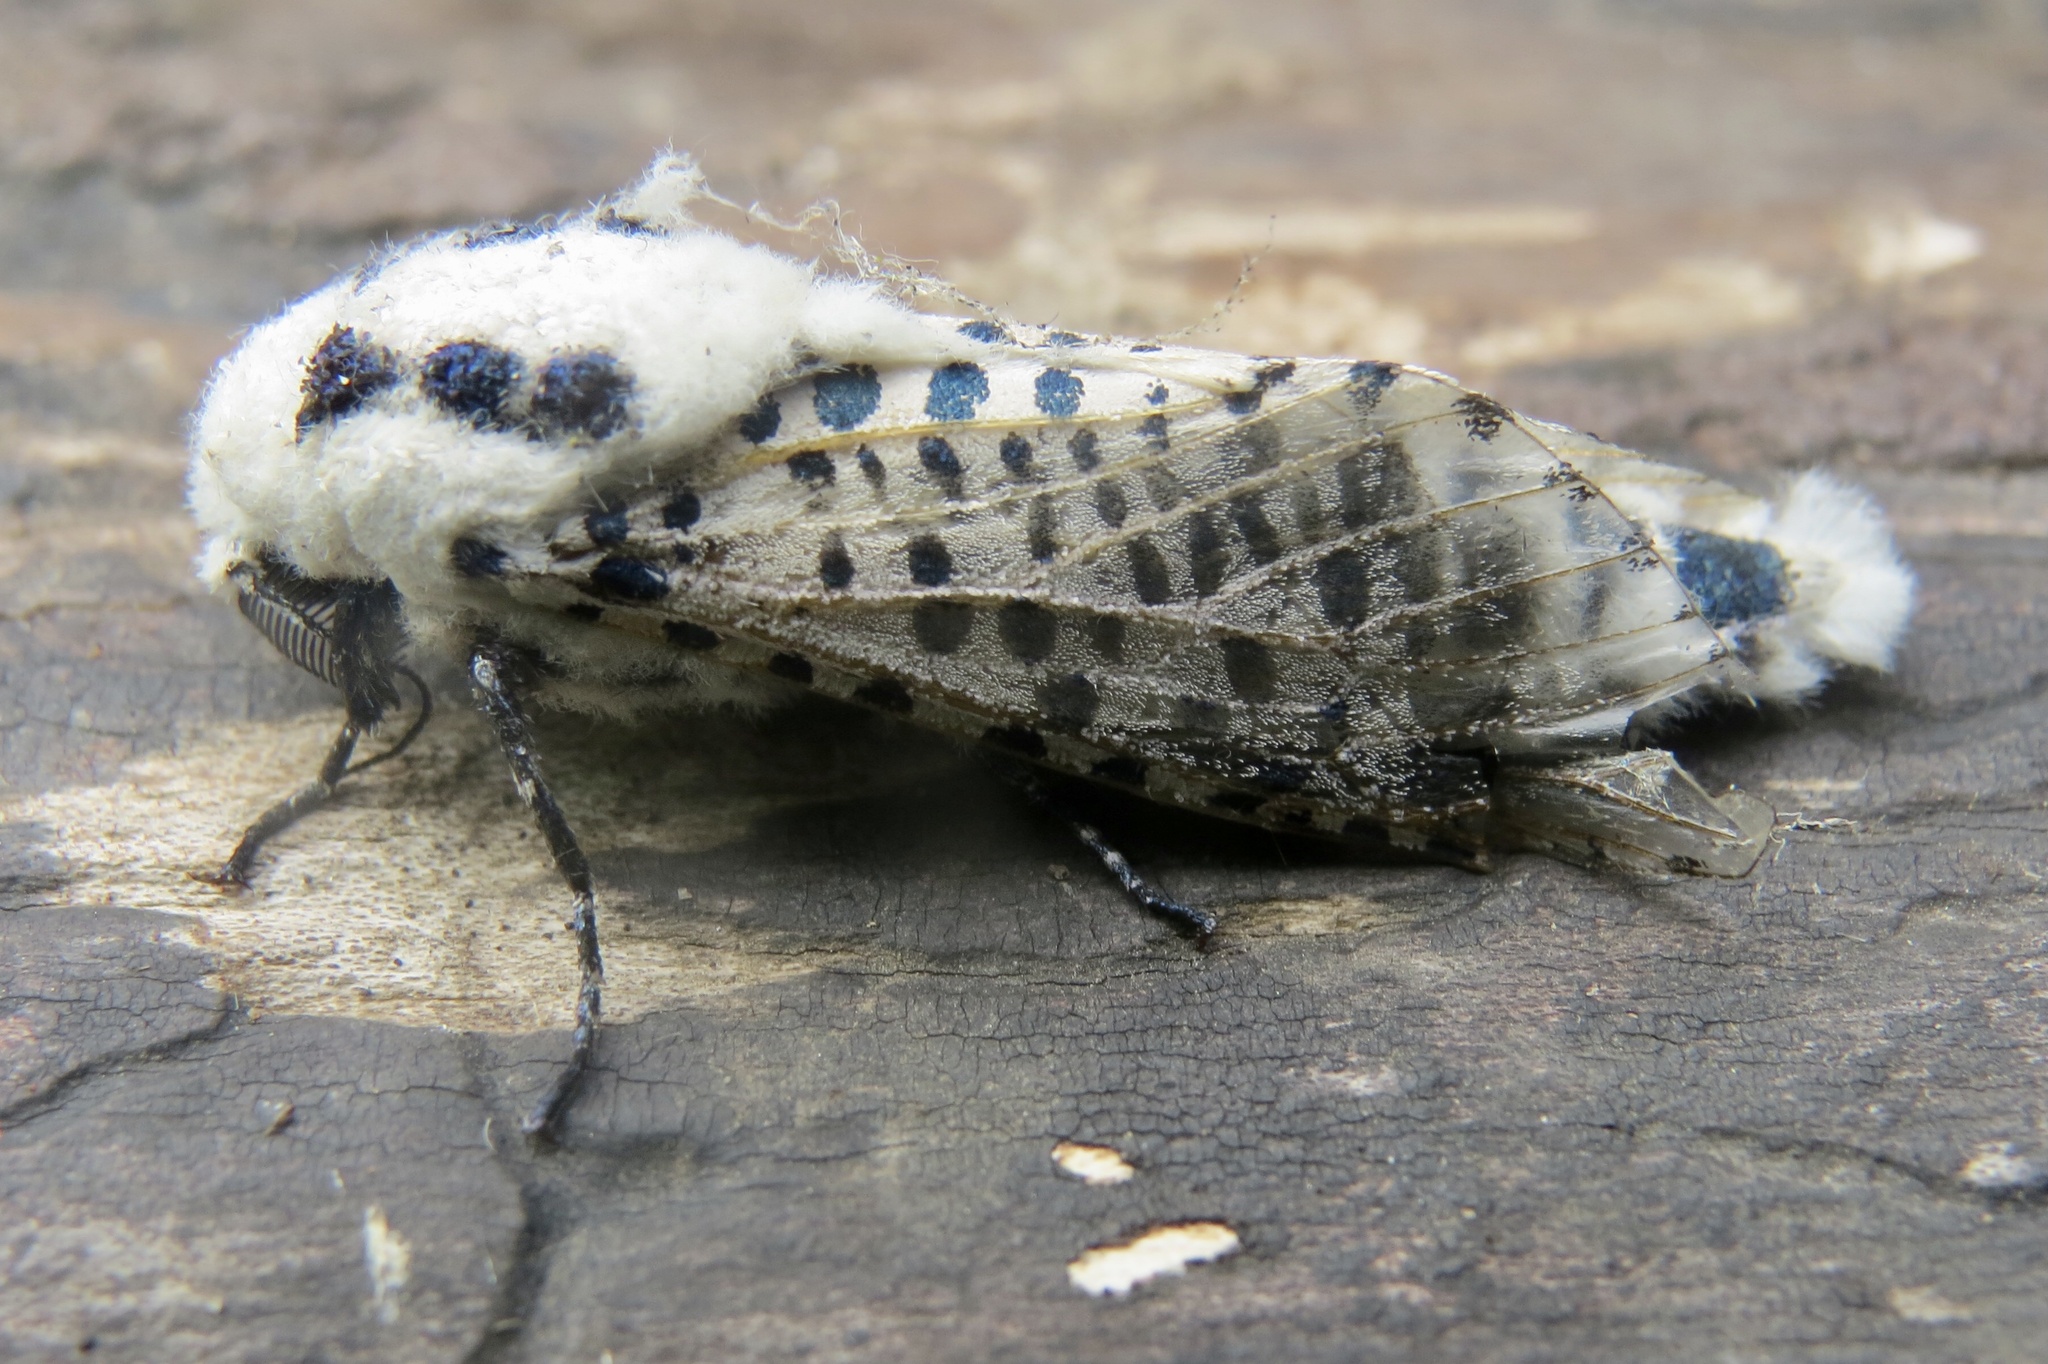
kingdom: Animalia
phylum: Arthropoda
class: Insecta
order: Lepidoptera
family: Cossidae
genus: Zeuzera
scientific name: Zeuzera pyrina
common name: Leopard moth
